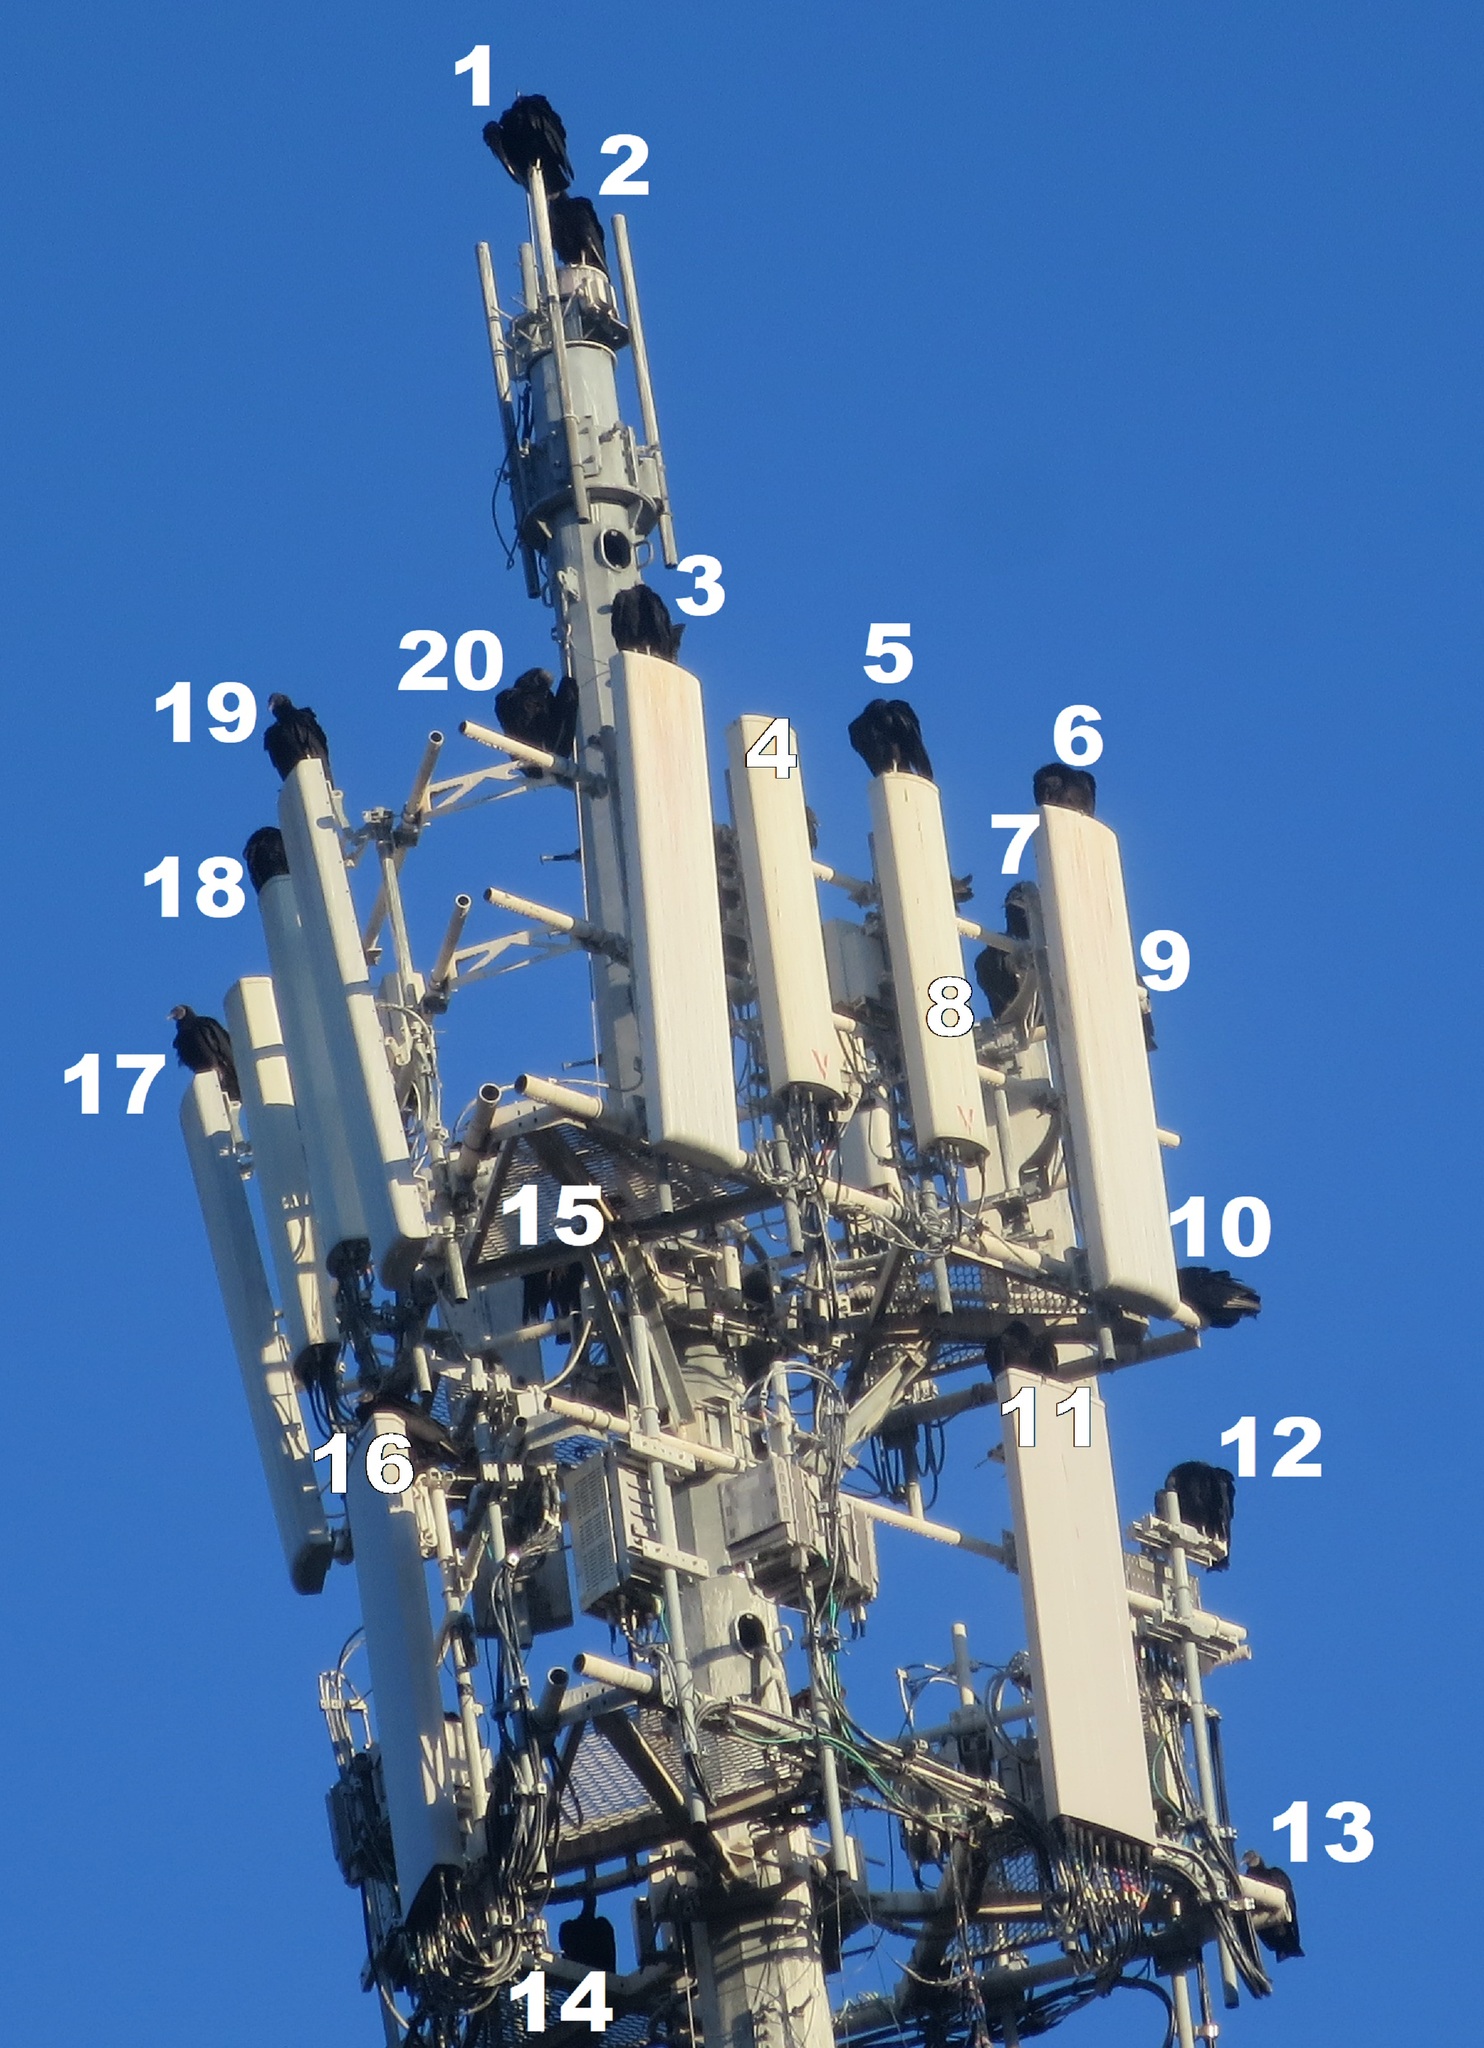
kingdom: Animalia
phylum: Chordata
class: Aves
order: Accipitriformes
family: Cathartidae
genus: Coragyps
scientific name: Coragyps atratus
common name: Black vulture
